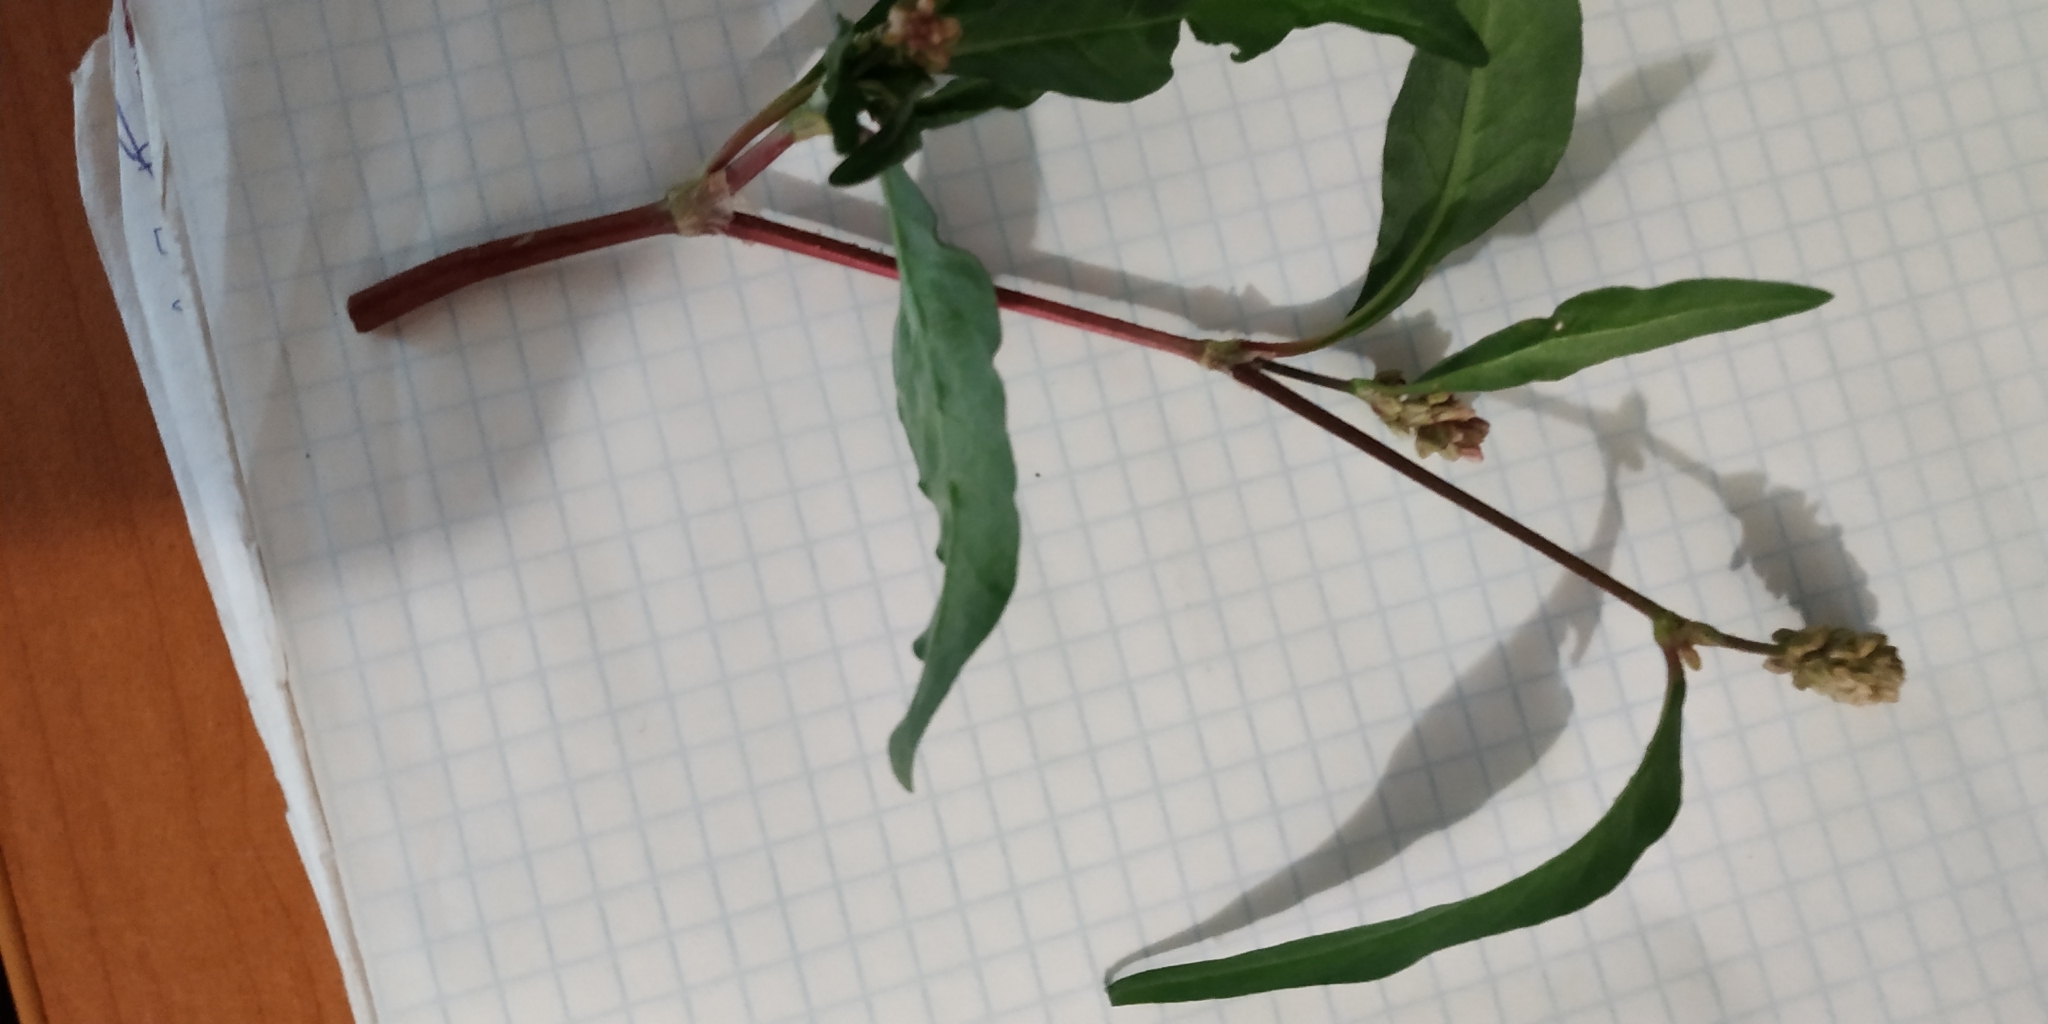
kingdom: Plantae
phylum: Tracheophyta
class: Magnoliopsida
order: Caryophyllales
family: Polygonaceae
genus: Persicaria
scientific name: Persicaria maculosa
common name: Redshank
